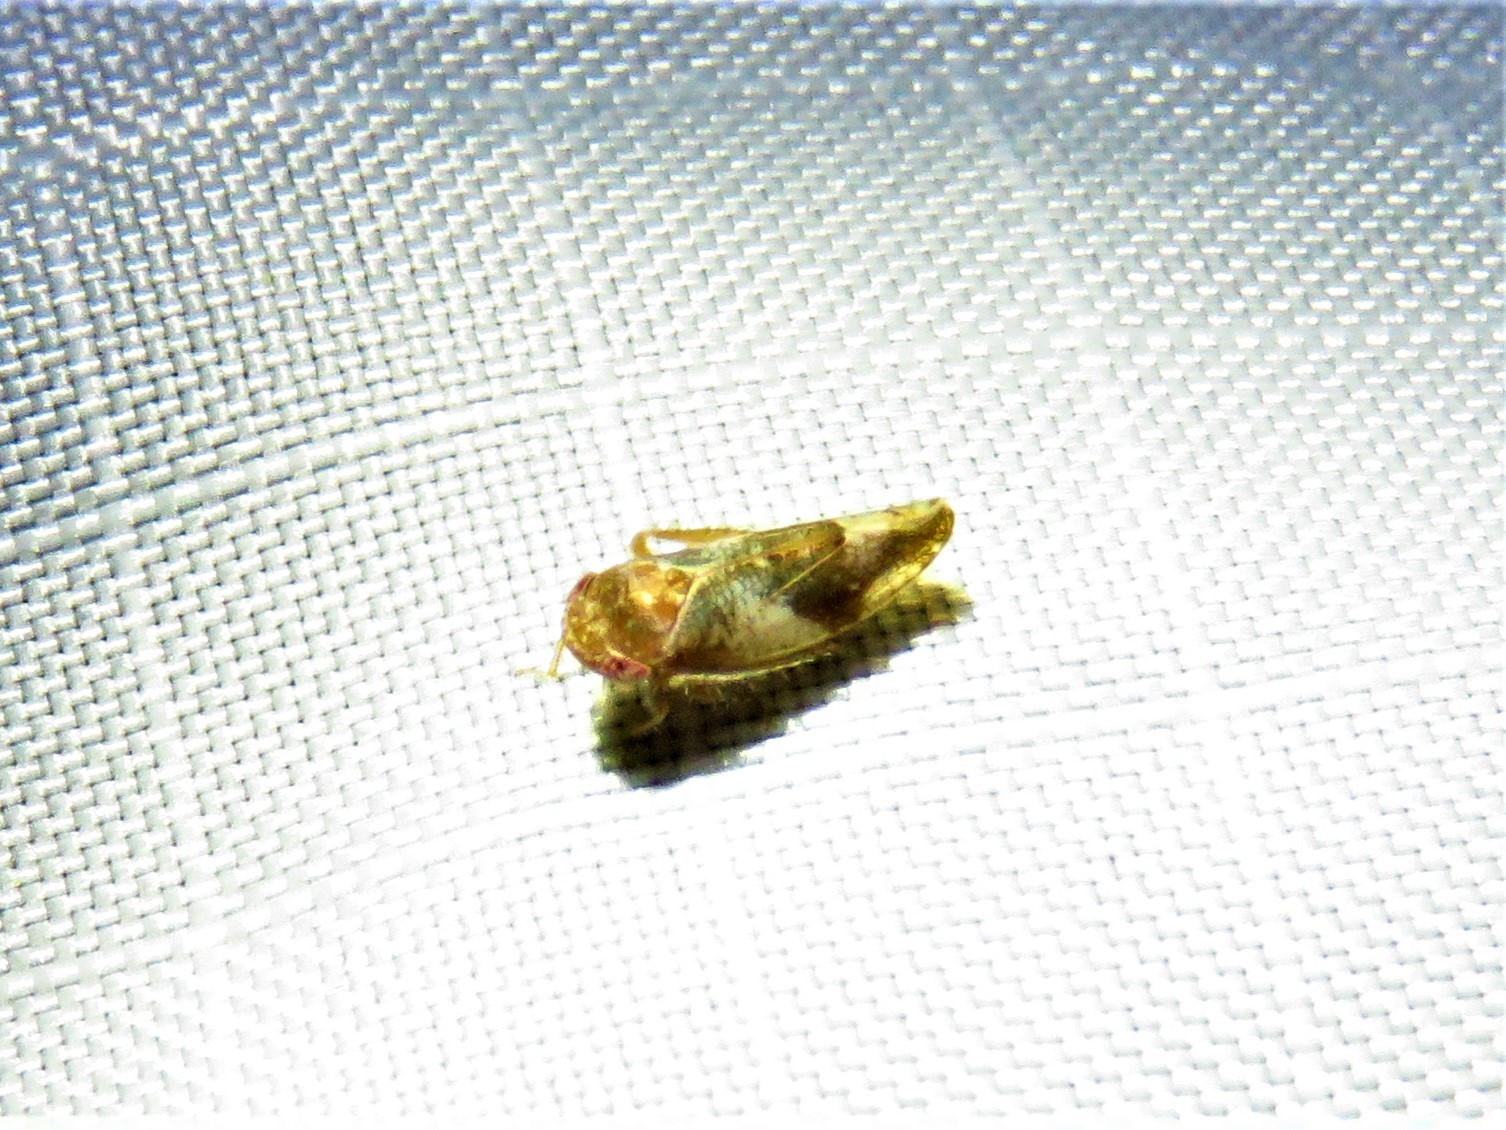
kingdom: Animalia
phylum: Arthropoda
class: Insecta
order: Hemiptera
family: Cicadellidae
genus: Norvellina
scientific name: Norvellina helenae
